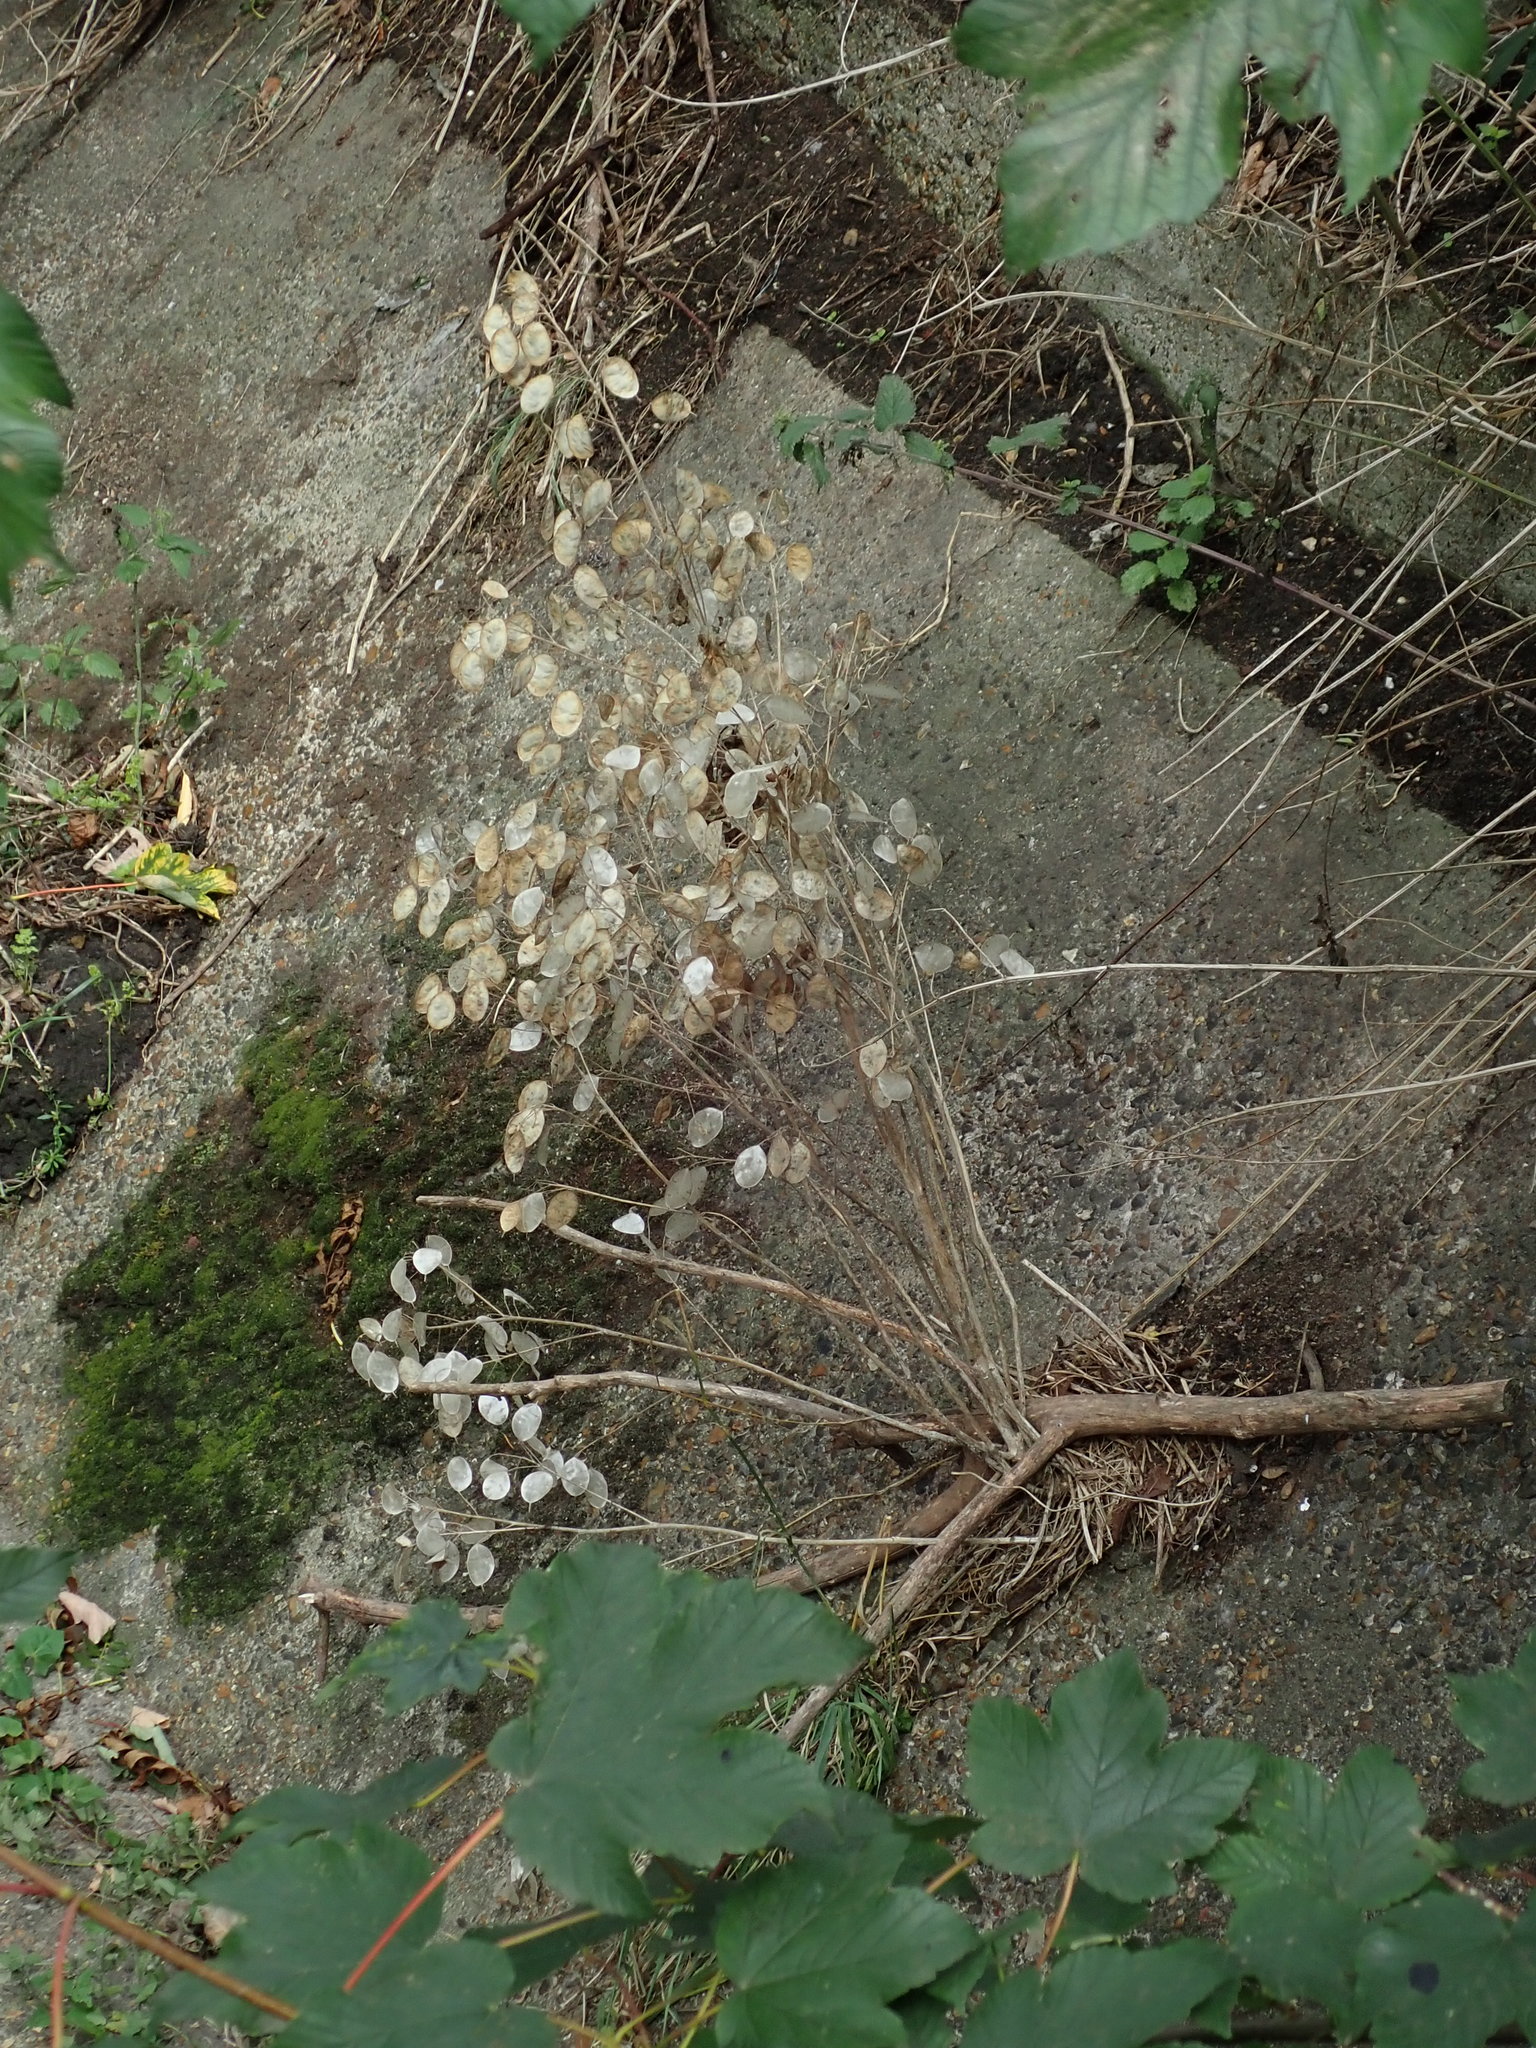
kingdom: Plantae
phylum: Tracheophyta
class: Magnoliopsida
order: Brassicales
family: Brassicaceae
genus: Lunaria
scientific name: Lunaria annua
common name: Honesty
